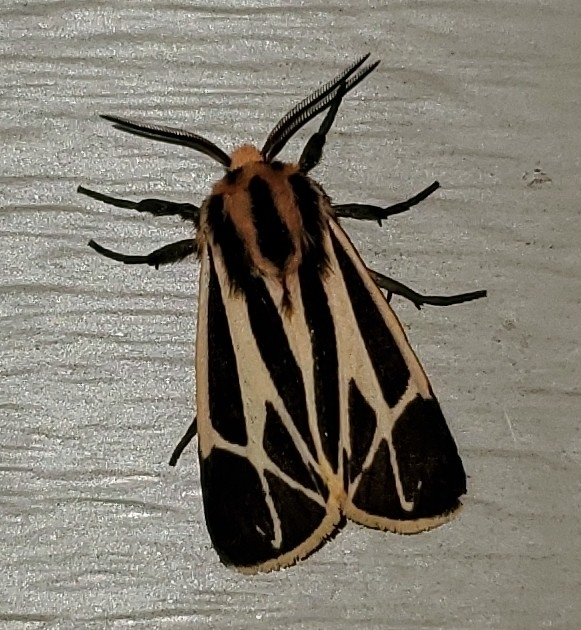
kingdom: Animalia
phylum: Arthropoda
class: Insecta
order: Lepidoptera
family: Erebidae
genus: Apantesis
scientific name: Apantesis nais
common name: Nais tiger moth
